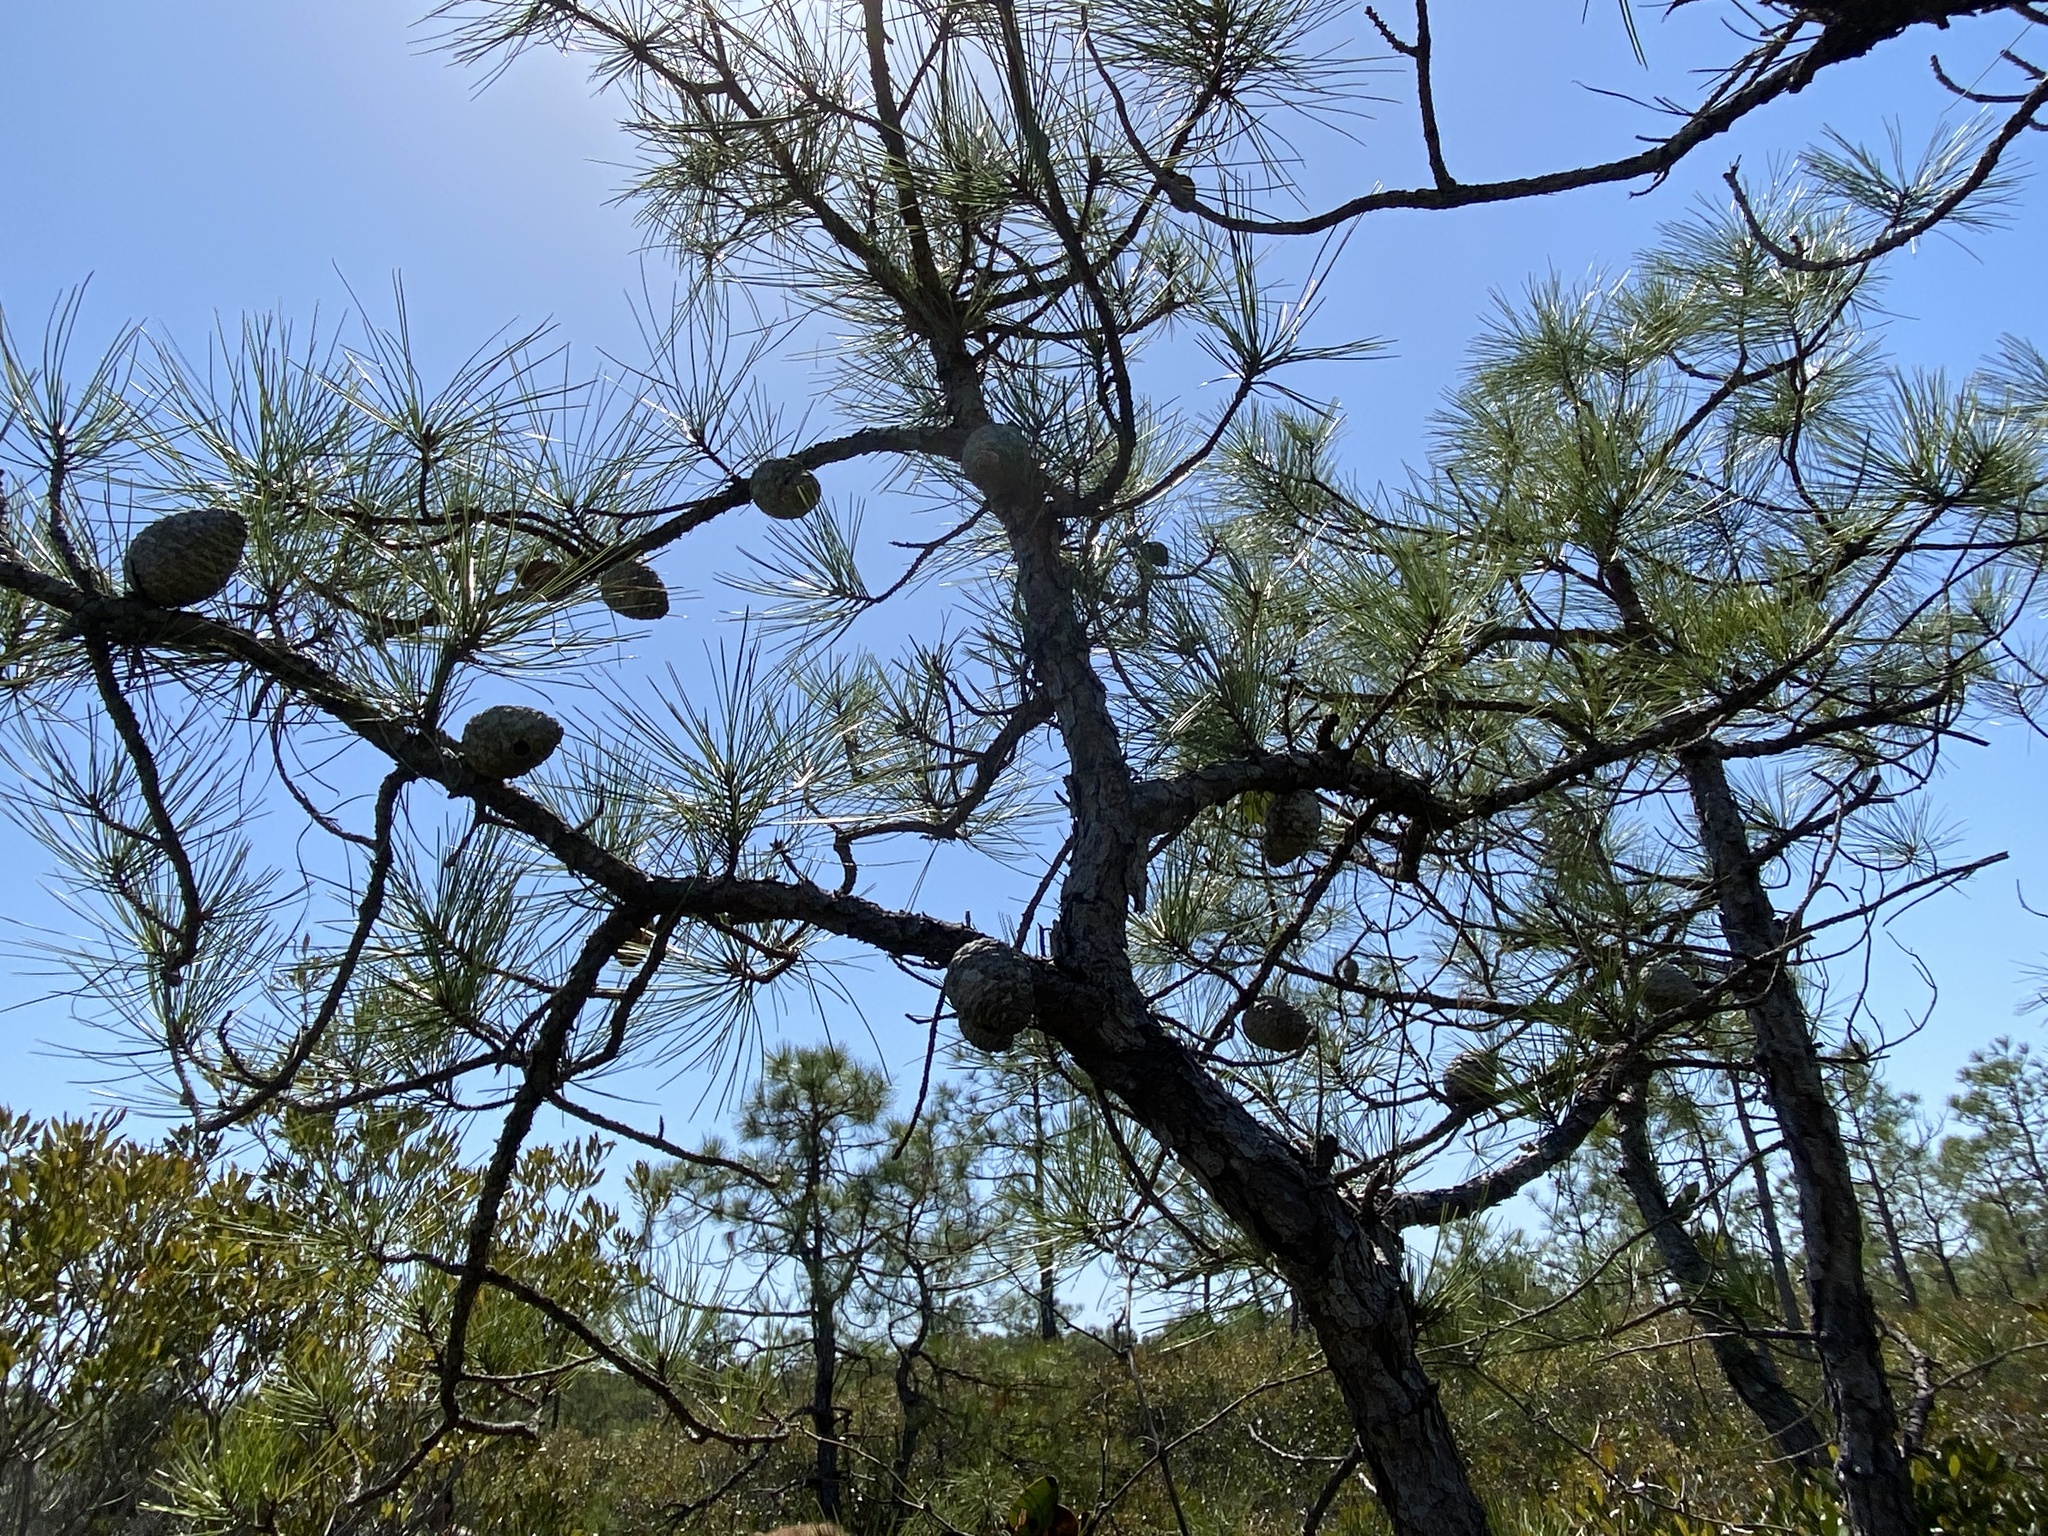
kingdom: Plantae
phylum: Tracheophyta
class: Pinopsida
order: Pinales
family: Pinaceae
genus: Pinus
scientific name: Pinus serotina
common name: Marsh pine
